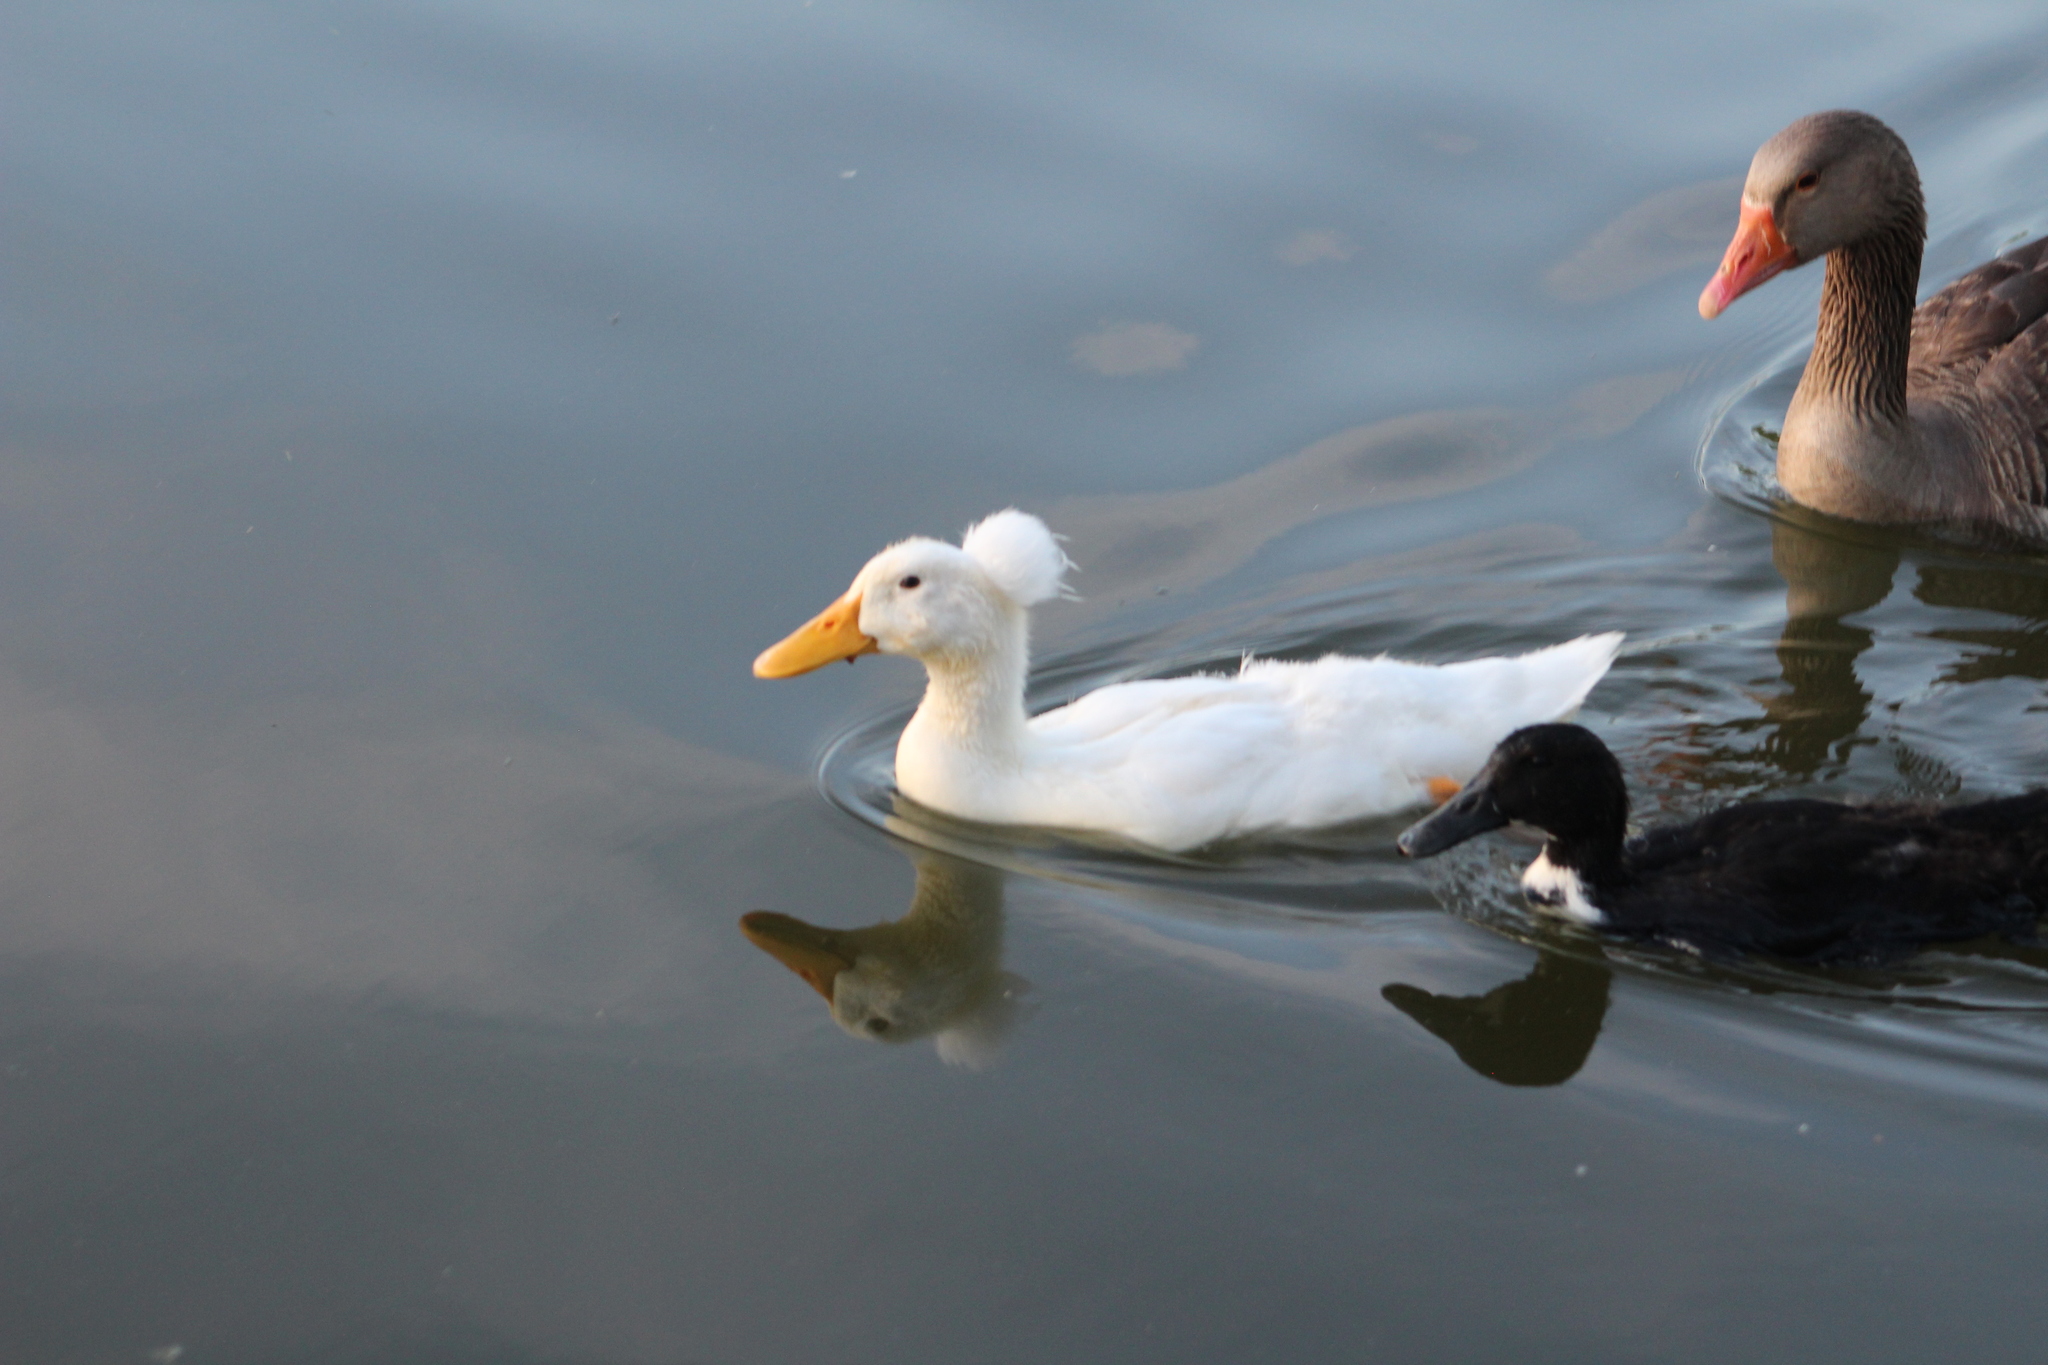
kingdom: Animalia
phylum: Chordata
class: Aves
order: Anseriformes
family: Anatidae
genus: Anas
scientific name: Anas platyrhynchos
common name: Mallard
